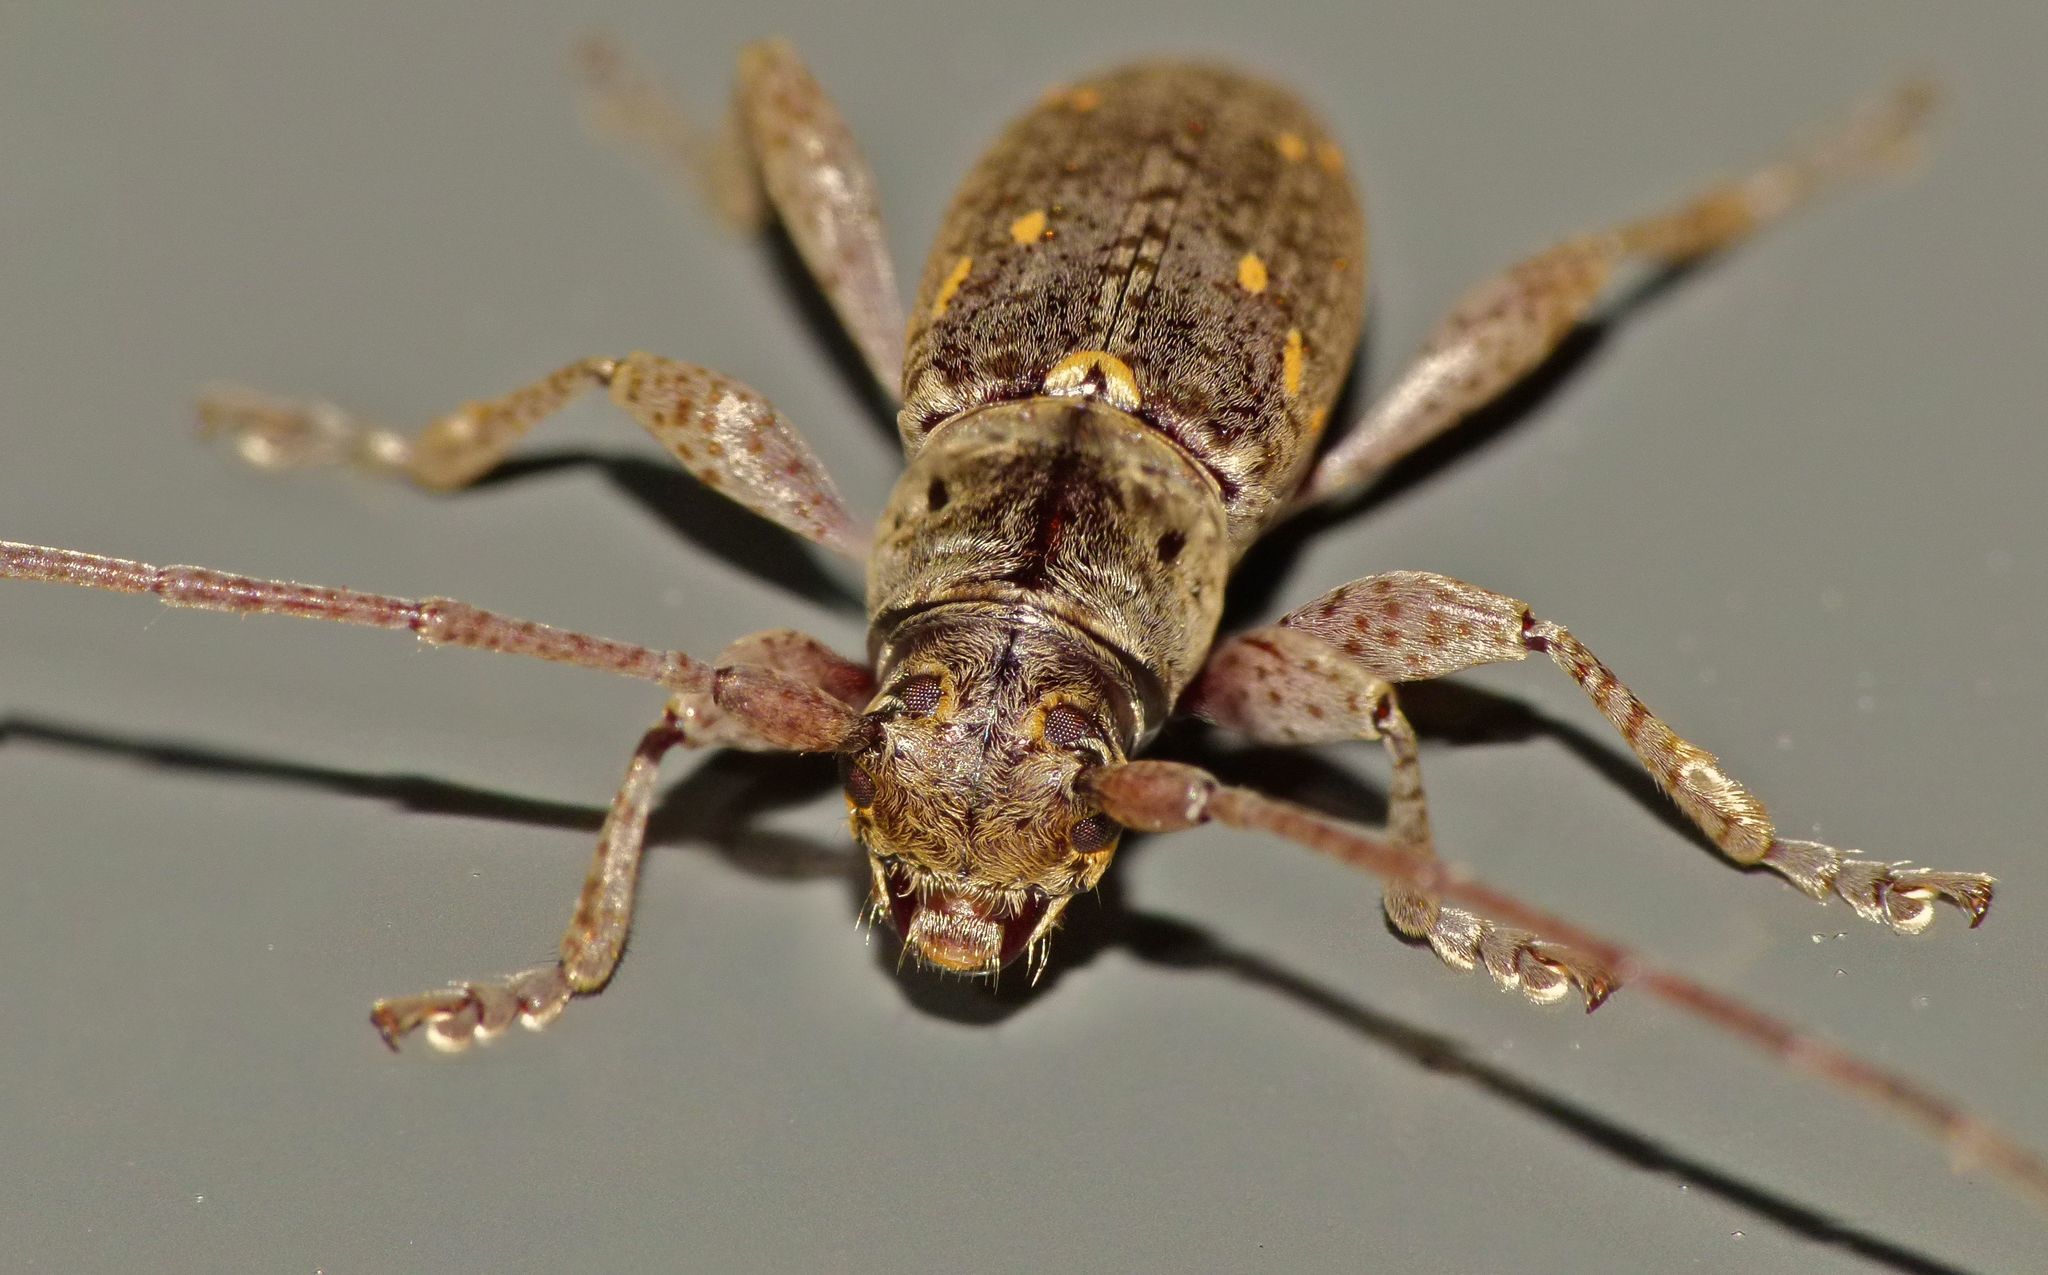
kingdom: Animalia
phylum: Arthropoda
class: Insecta
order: Coleoptera
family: Cerambycidae
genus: Xylotoles
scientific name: Xylotoles griseus
